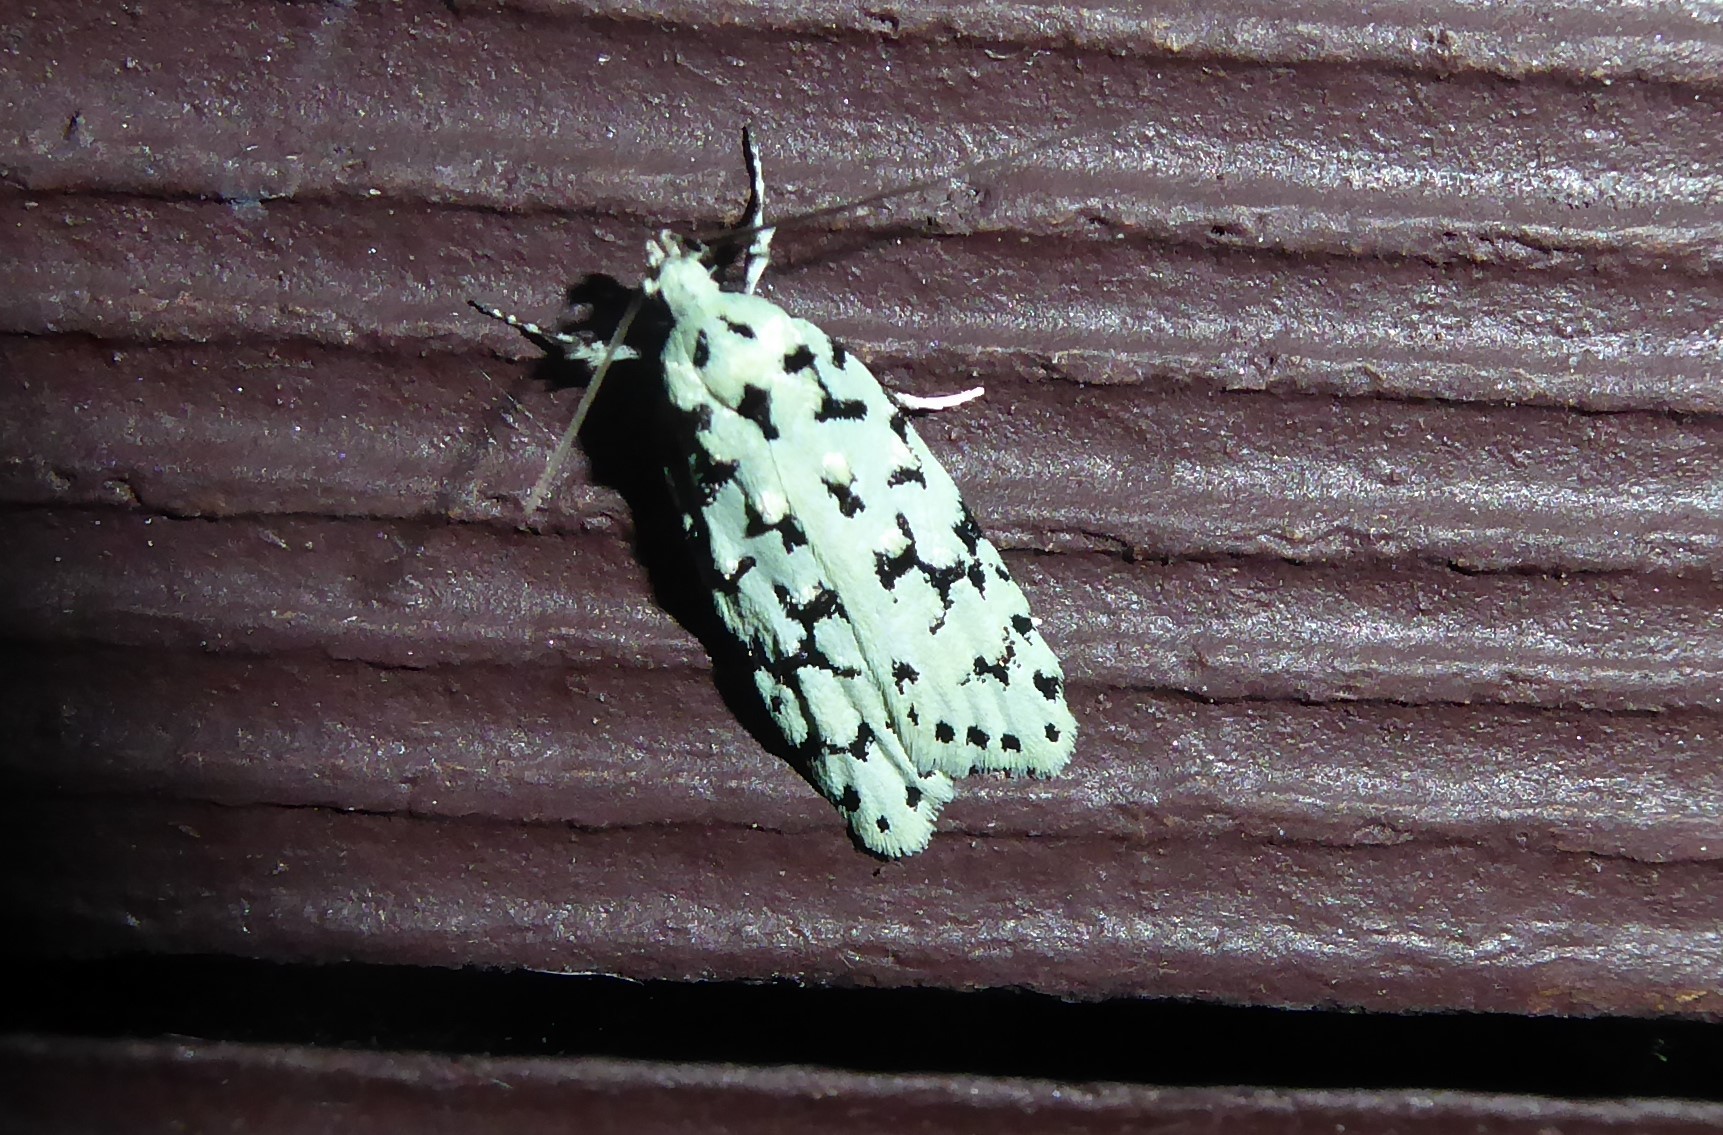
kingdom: Animalia
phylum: Arthropoda
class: Insecta
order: Lepidoptera
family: Oecophoridae
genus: Izatha
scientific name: Izatha huttoni
